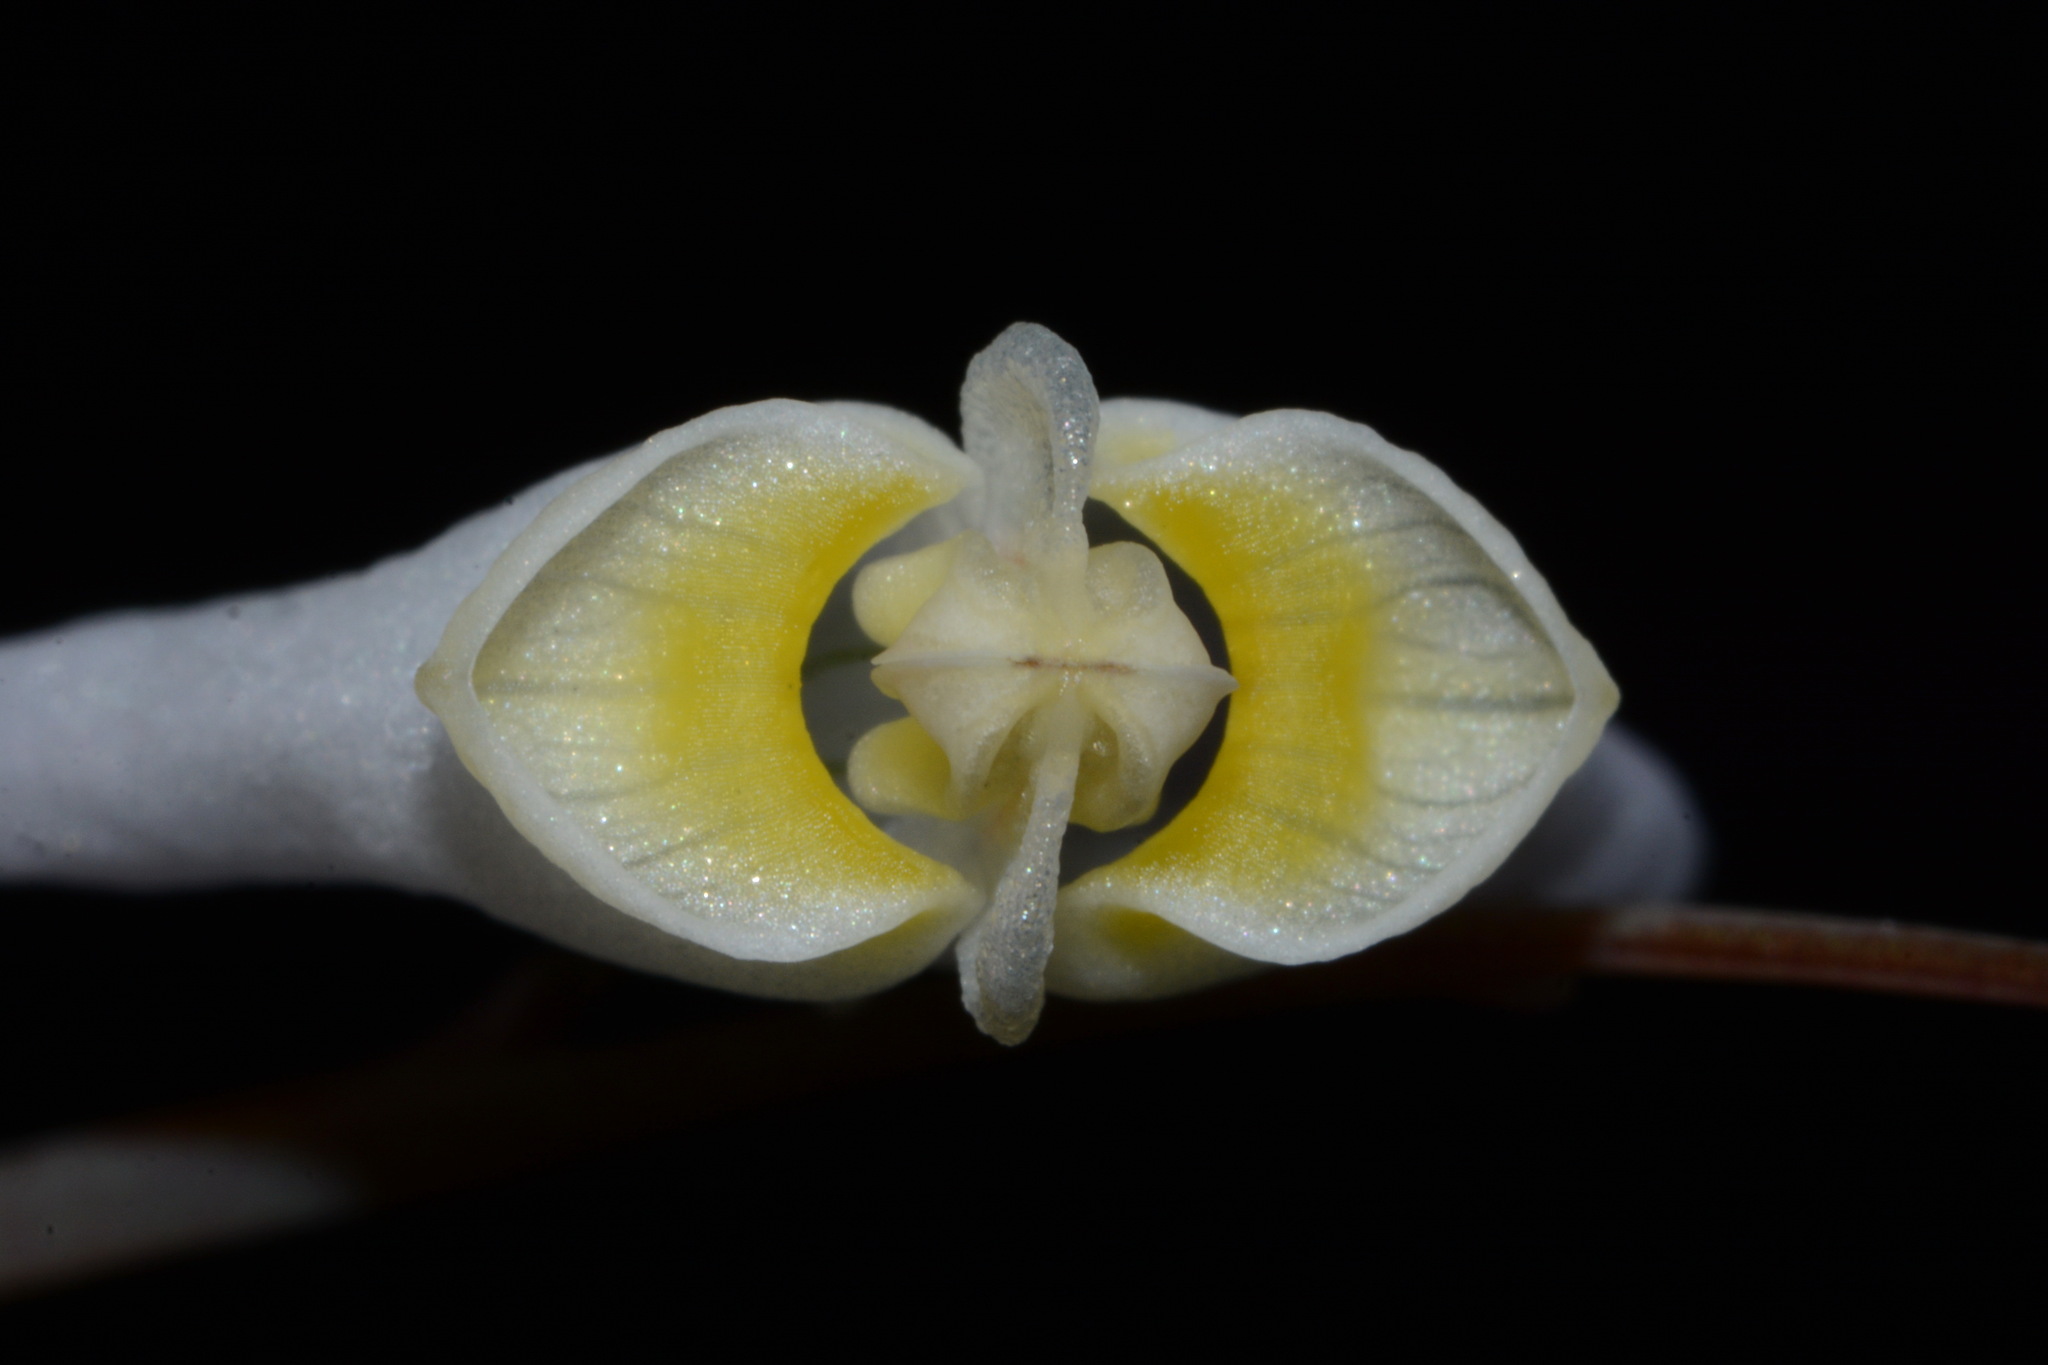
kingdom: Plantae
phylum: Tracheophyta
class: Magnoliopsida
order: Ranunculales
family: Papaveraceae
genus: Dicentra
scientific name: Dicentra cucullaria
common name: Dutchman's breeches
